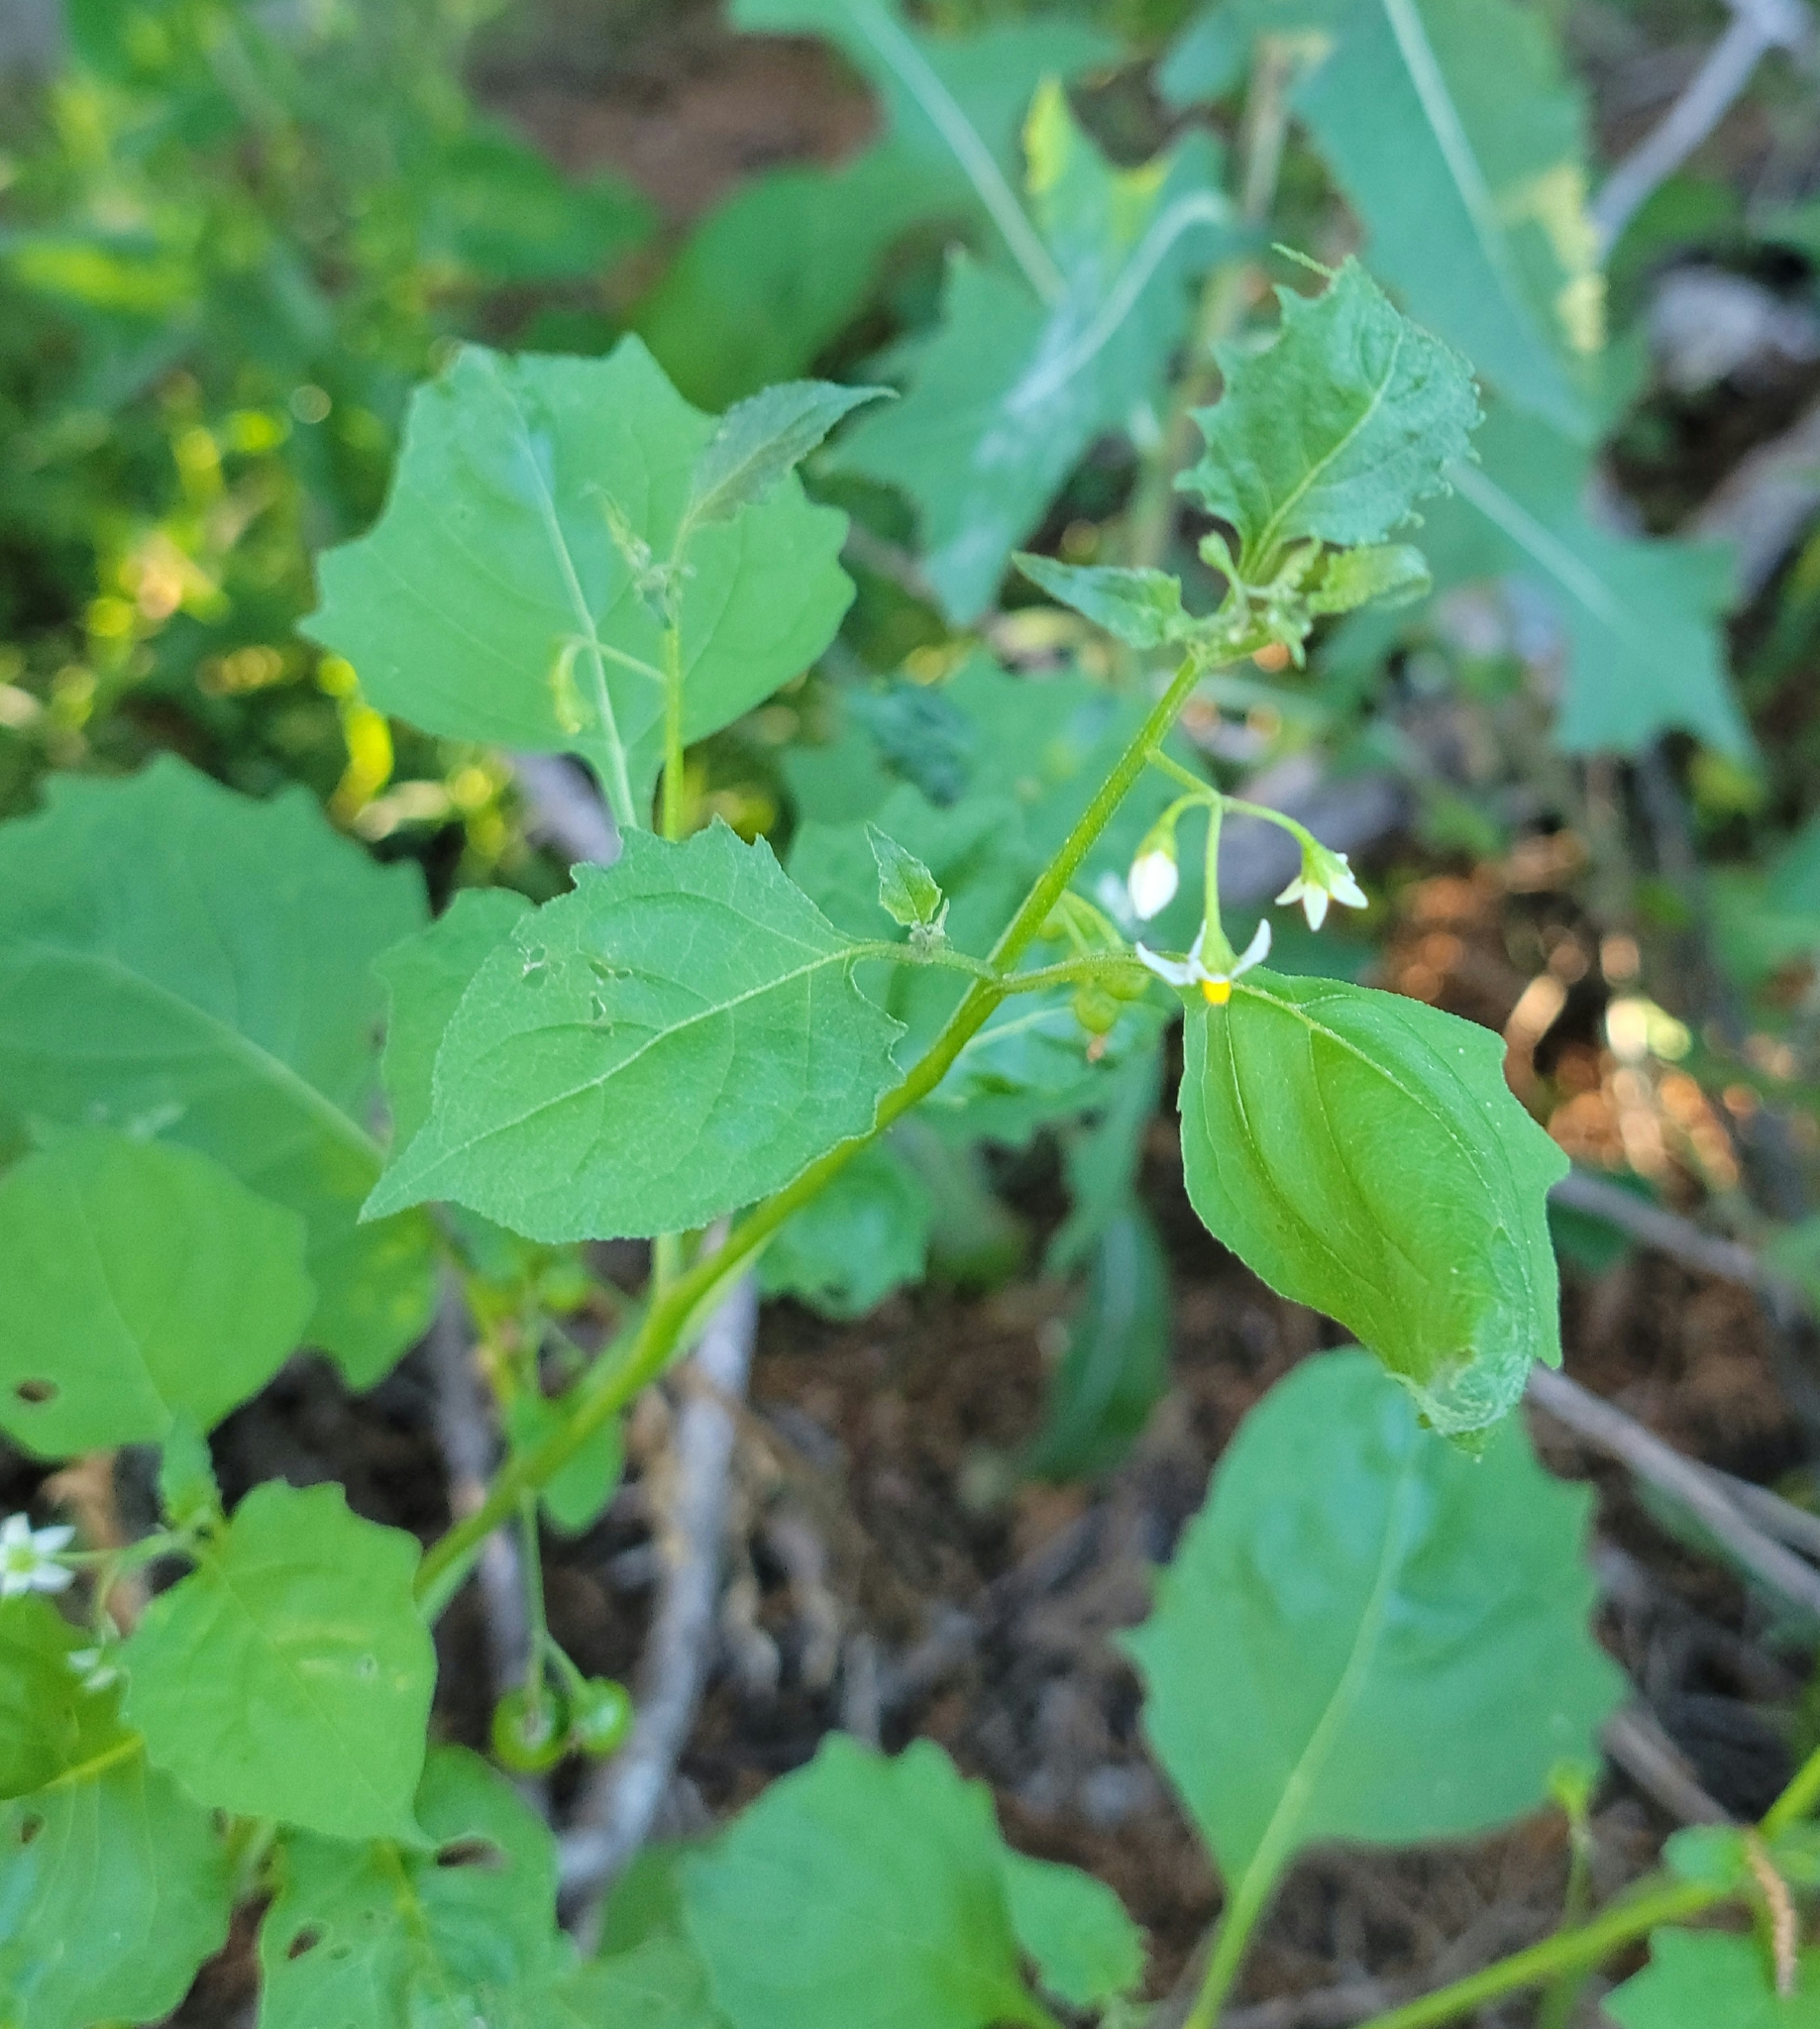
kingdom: Plantae
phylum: Tracheophyta
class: Magnoliopsida
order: Solanales
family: Solanaceae
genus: Solanum
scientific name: Solanum emulans
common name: Eastern black nightshade
